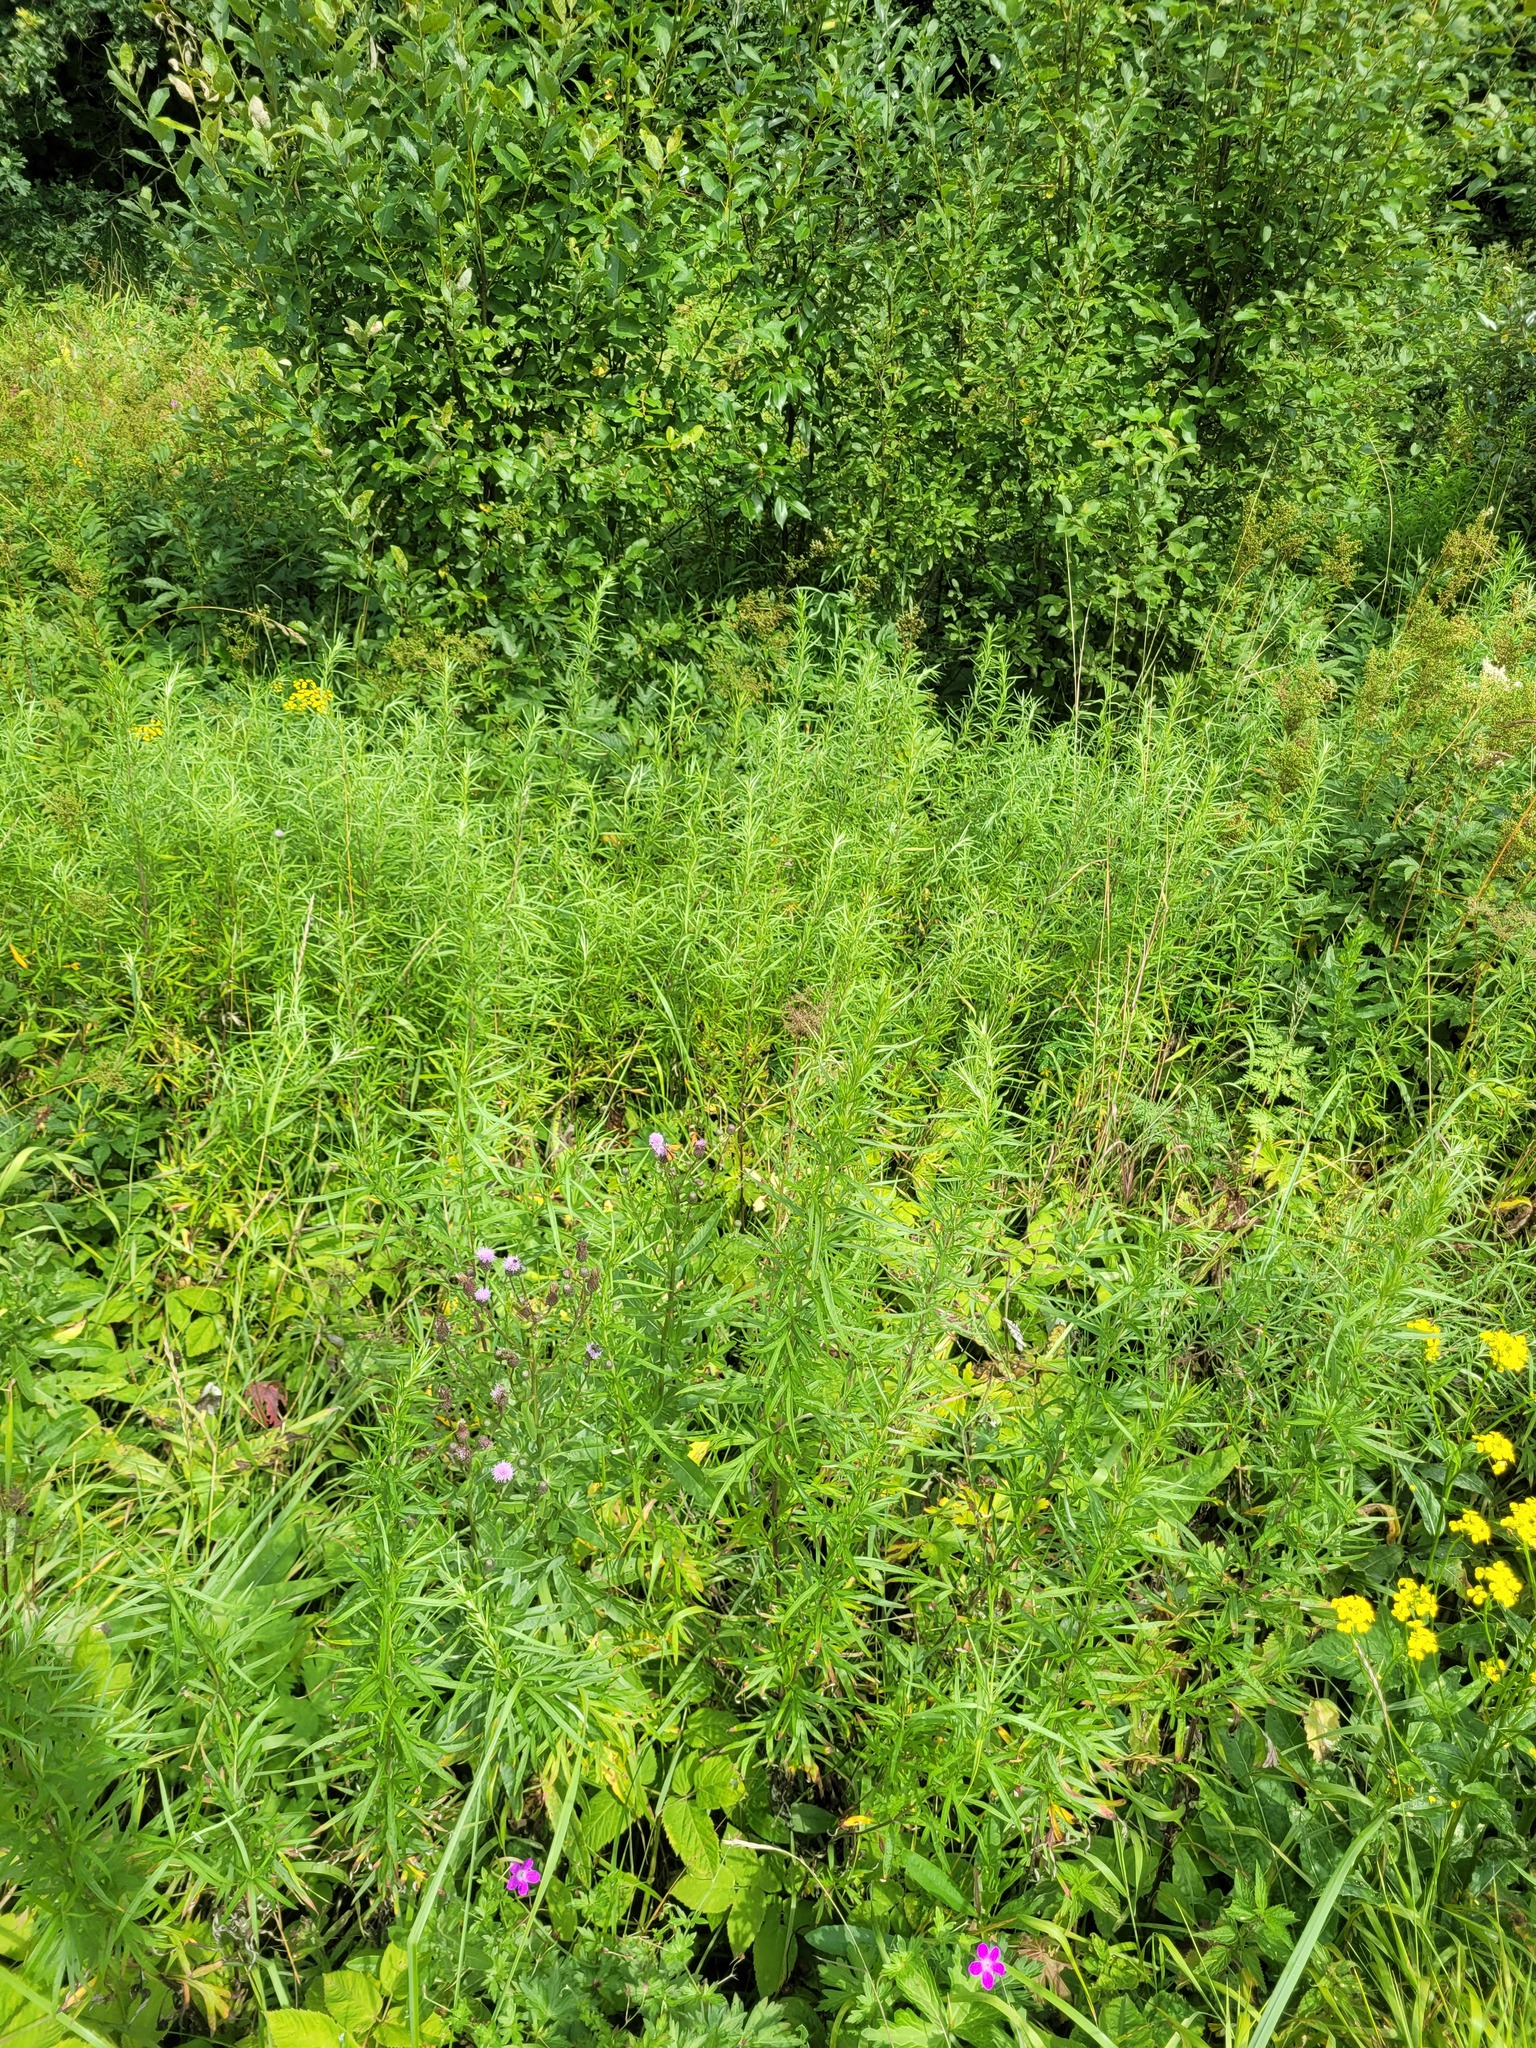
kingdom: Plantae
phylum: Tracheophyta
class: Magnoliopsida
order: Asterales
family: Asteraceae
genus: Artemisia
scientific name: Artemisia umbrosa
